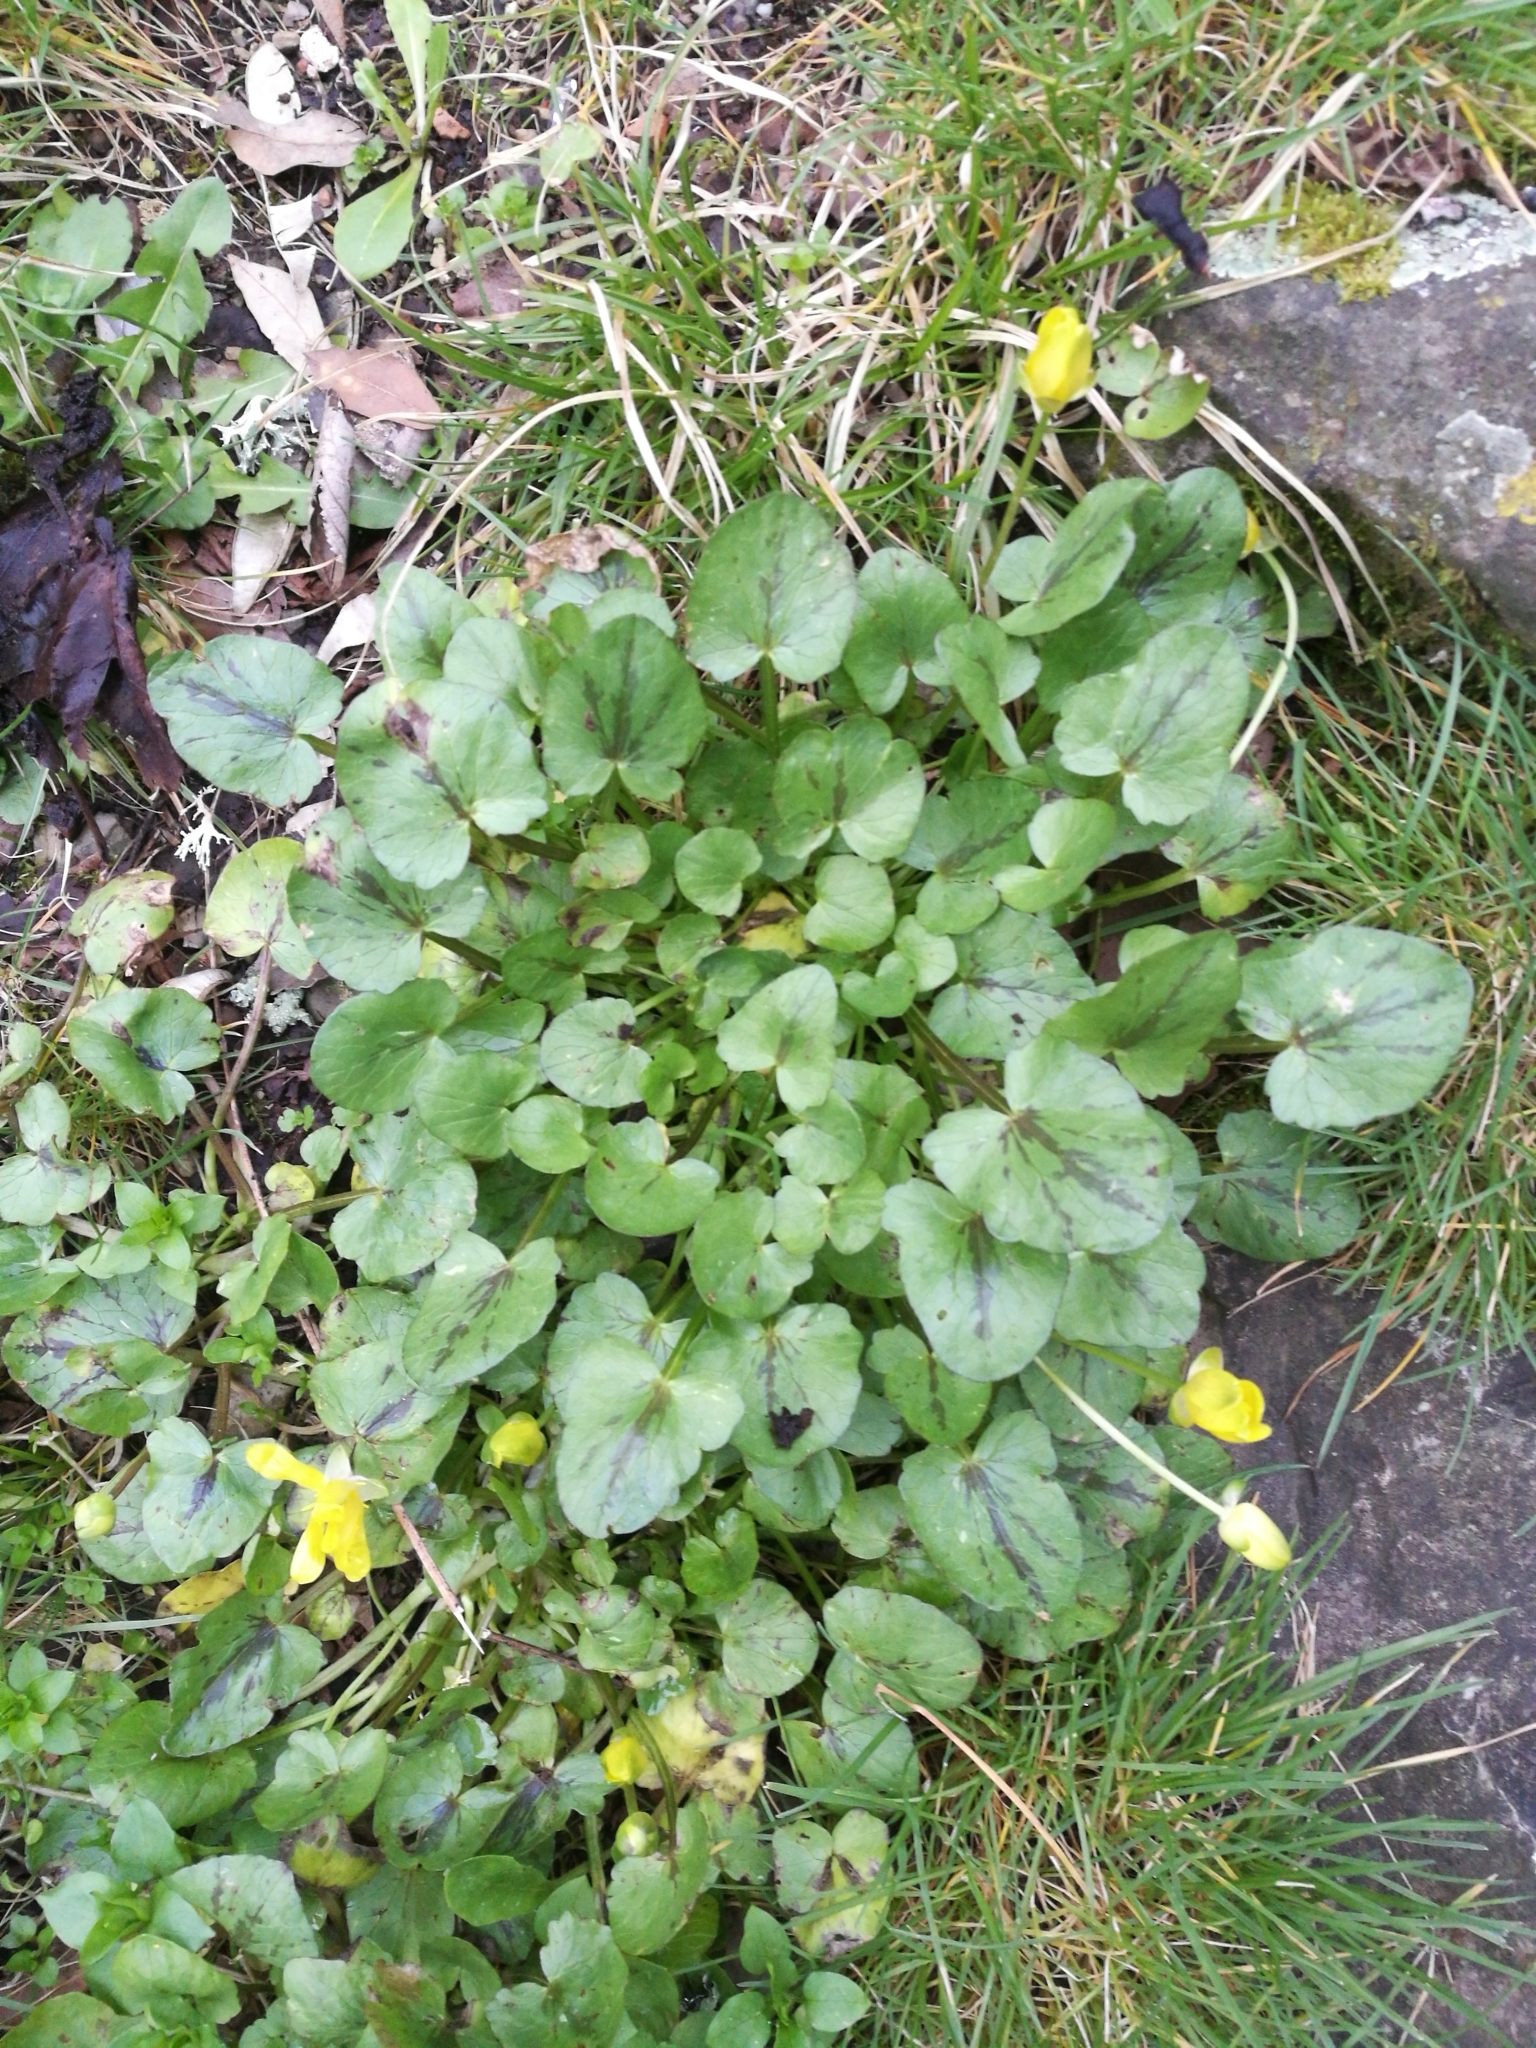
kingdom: Plantae
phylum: Tracheophyta
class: Magnoliopsida
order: Ranunculales
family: Ranunculaceae
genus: Ficaria
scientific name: Ficaria verna
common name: Lesser celandine
